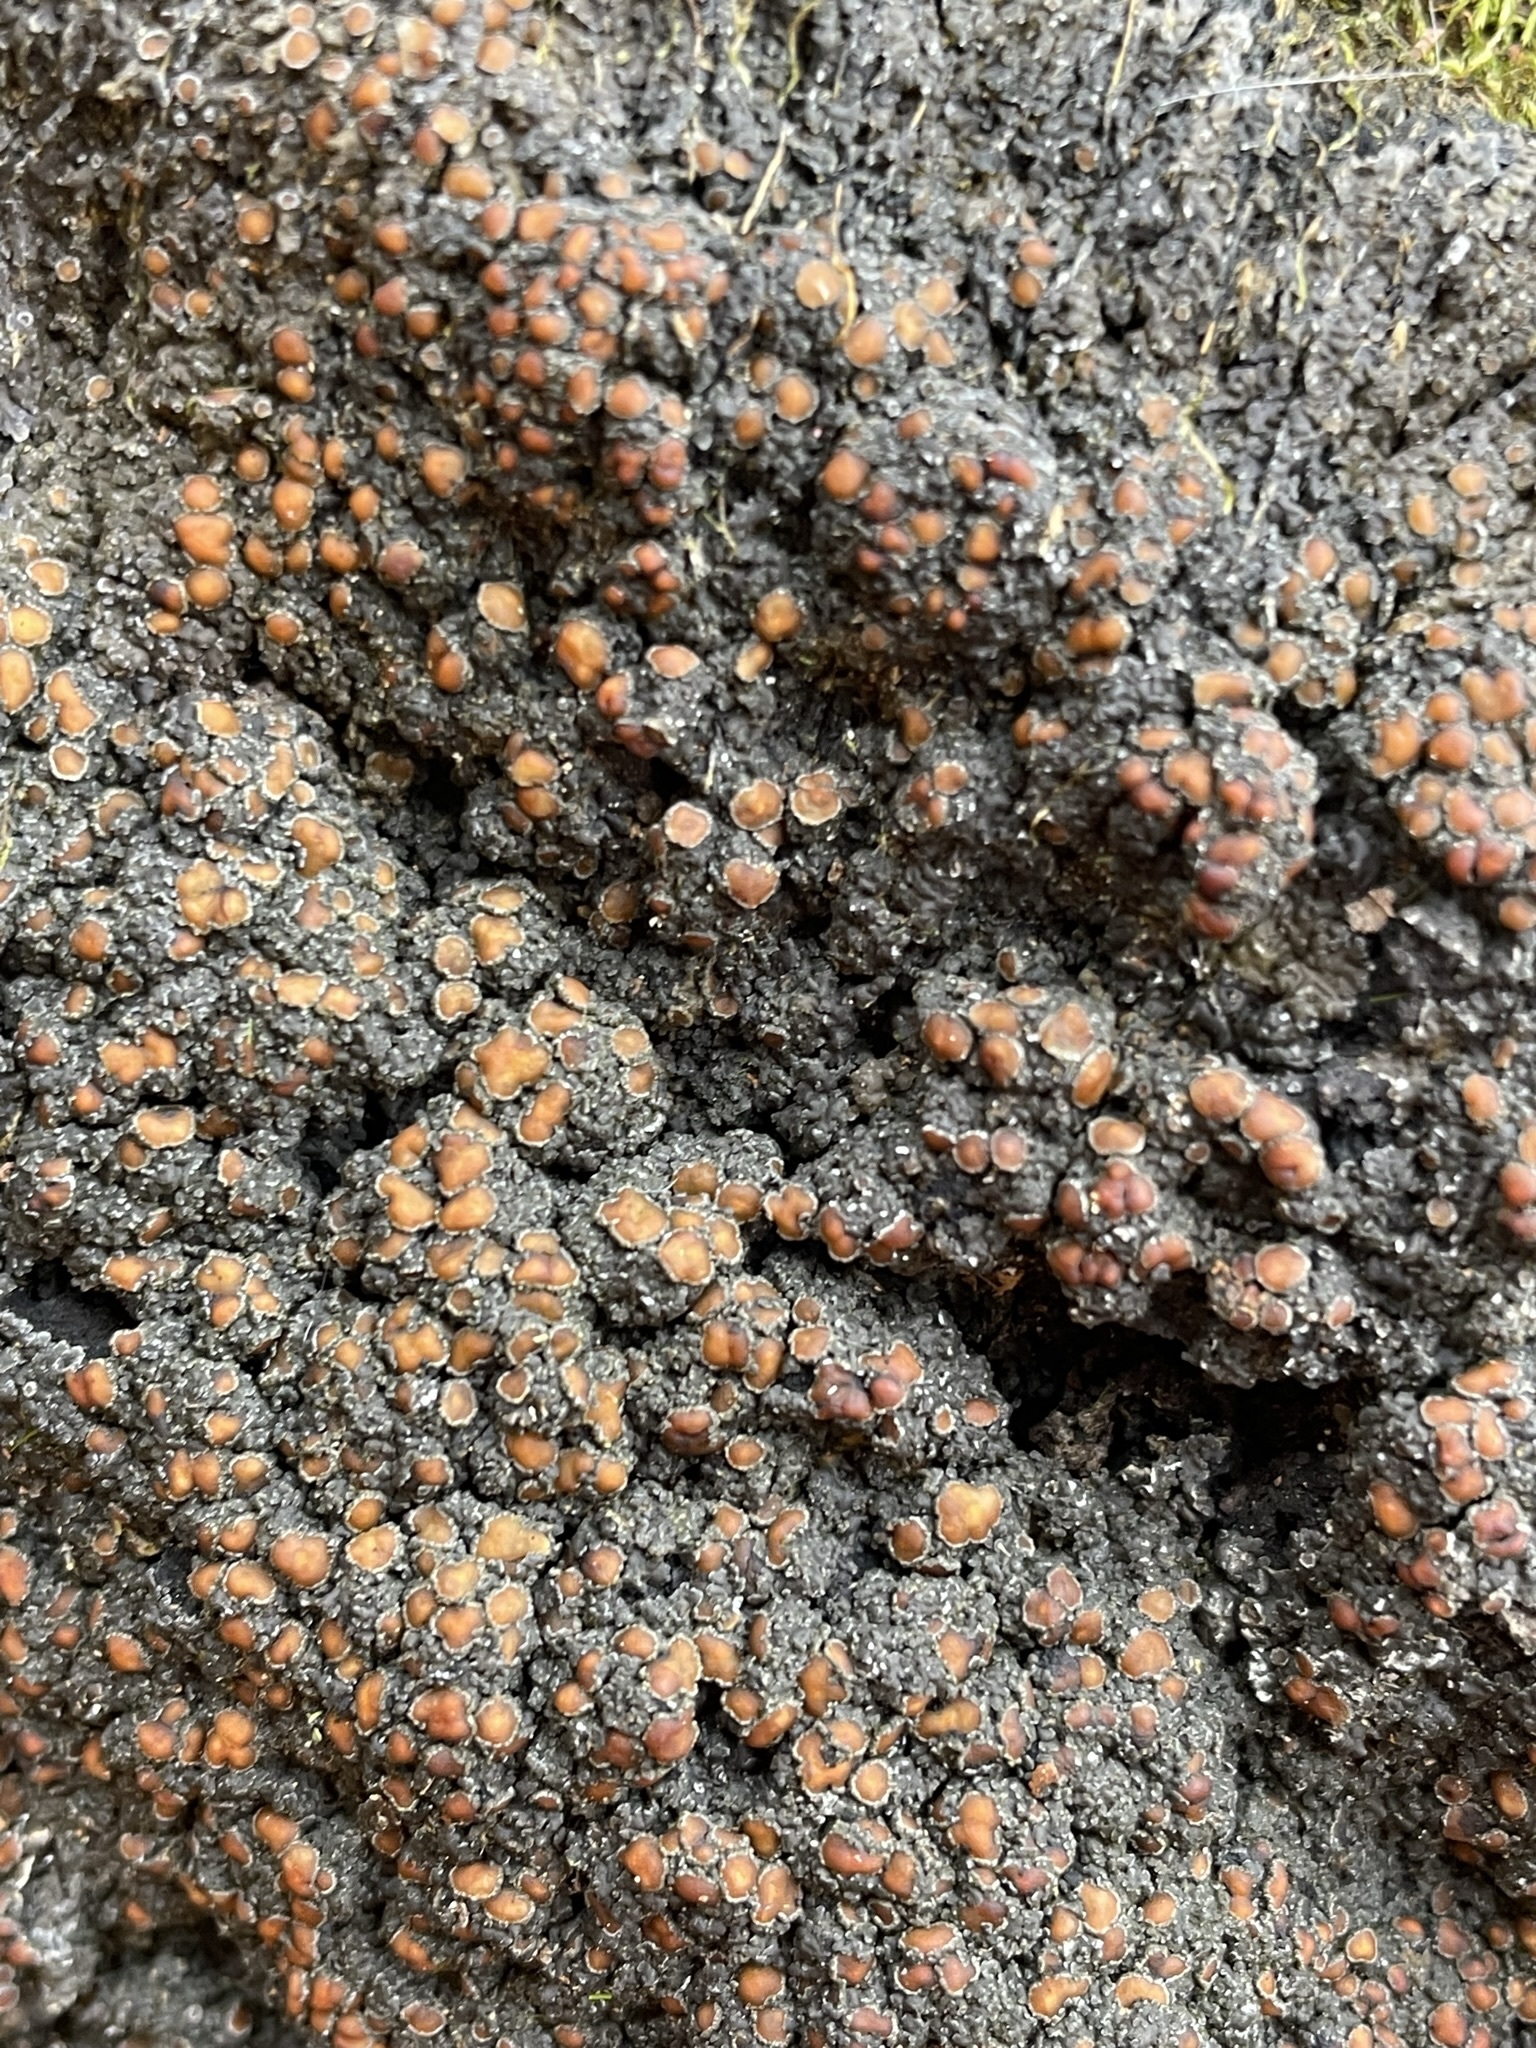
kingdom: Fungi
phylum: Ascomycota
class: Lecanoromycetes
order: Peltigerales
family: Pannariaceae
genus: Fuscopannaria
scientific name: Fuscopannaria leucosticta
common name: Rimmed shingle lichen
